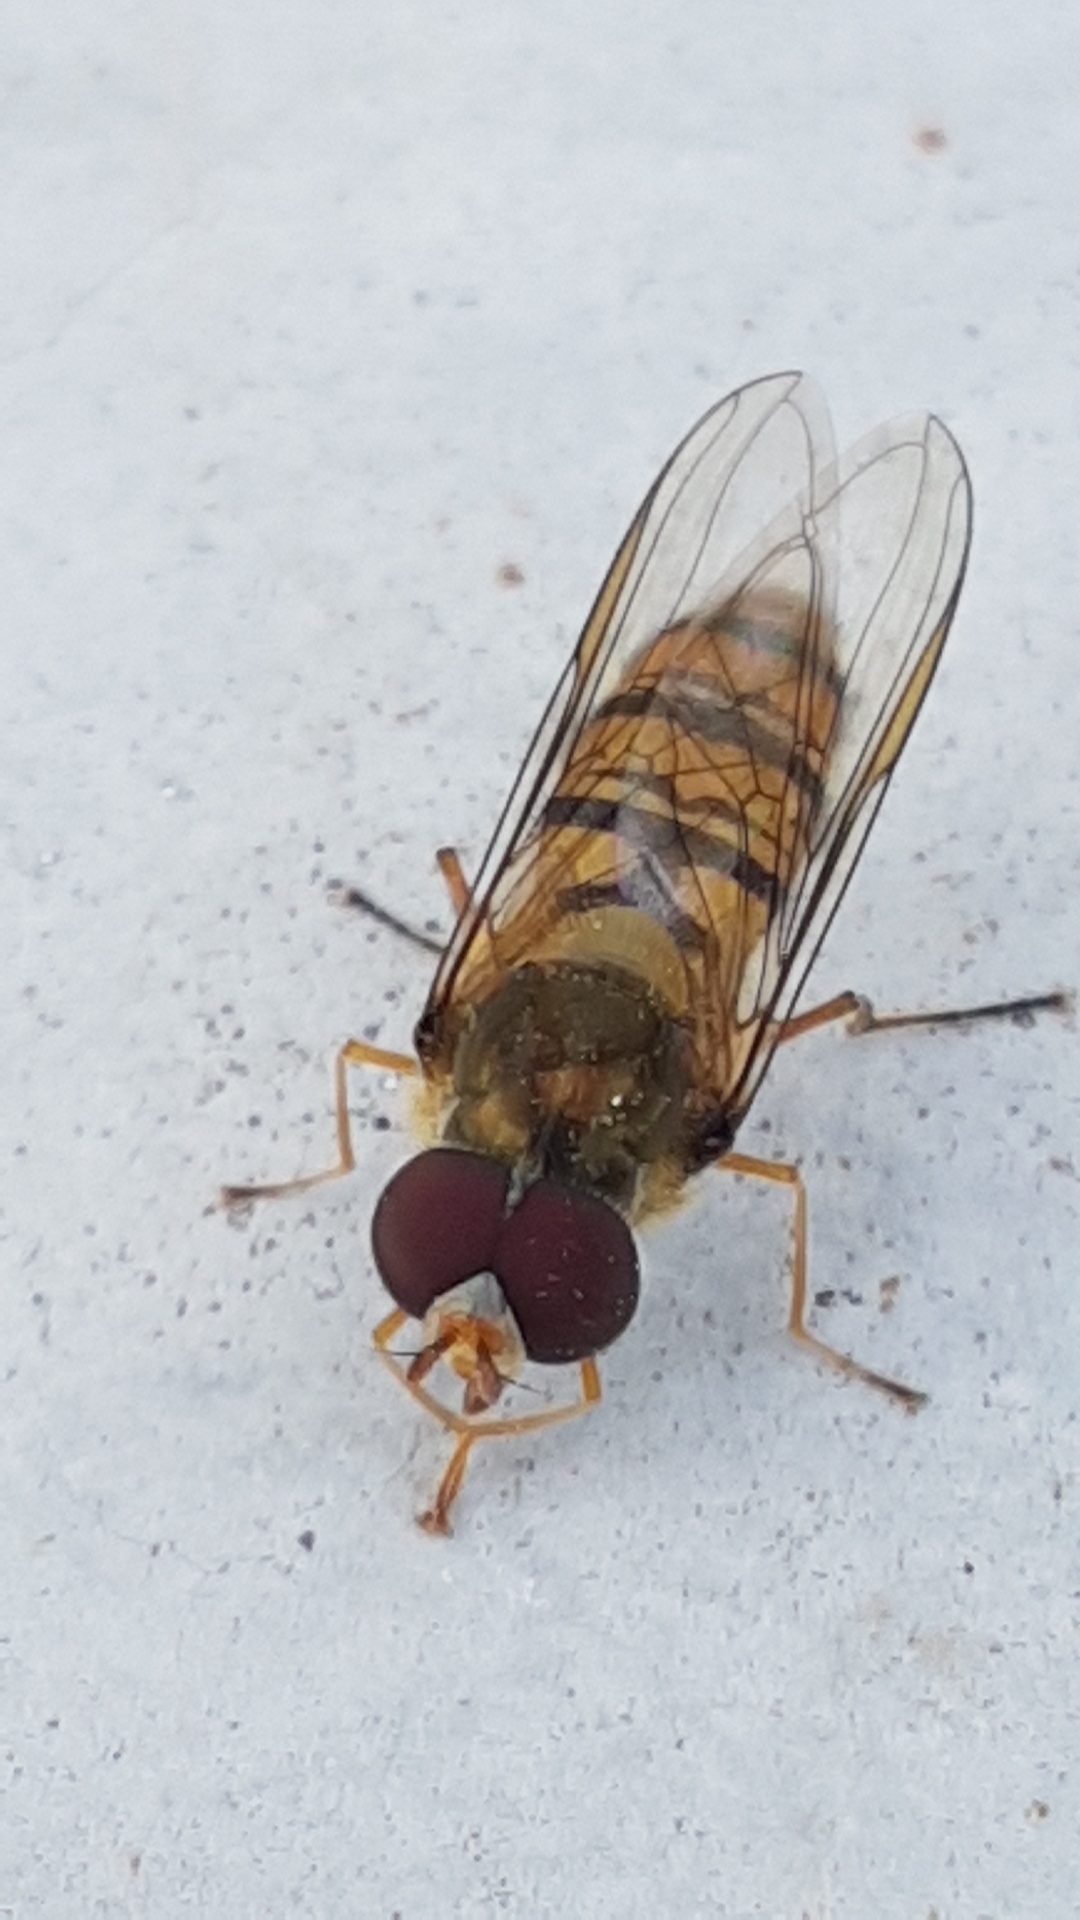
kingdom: Animalia
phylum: Arthropoda
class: Insecta
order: Diptera
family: Syrphidae
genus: Episyrphus
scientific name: Episyrphus balteatus
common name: Marmalade hoverfly
